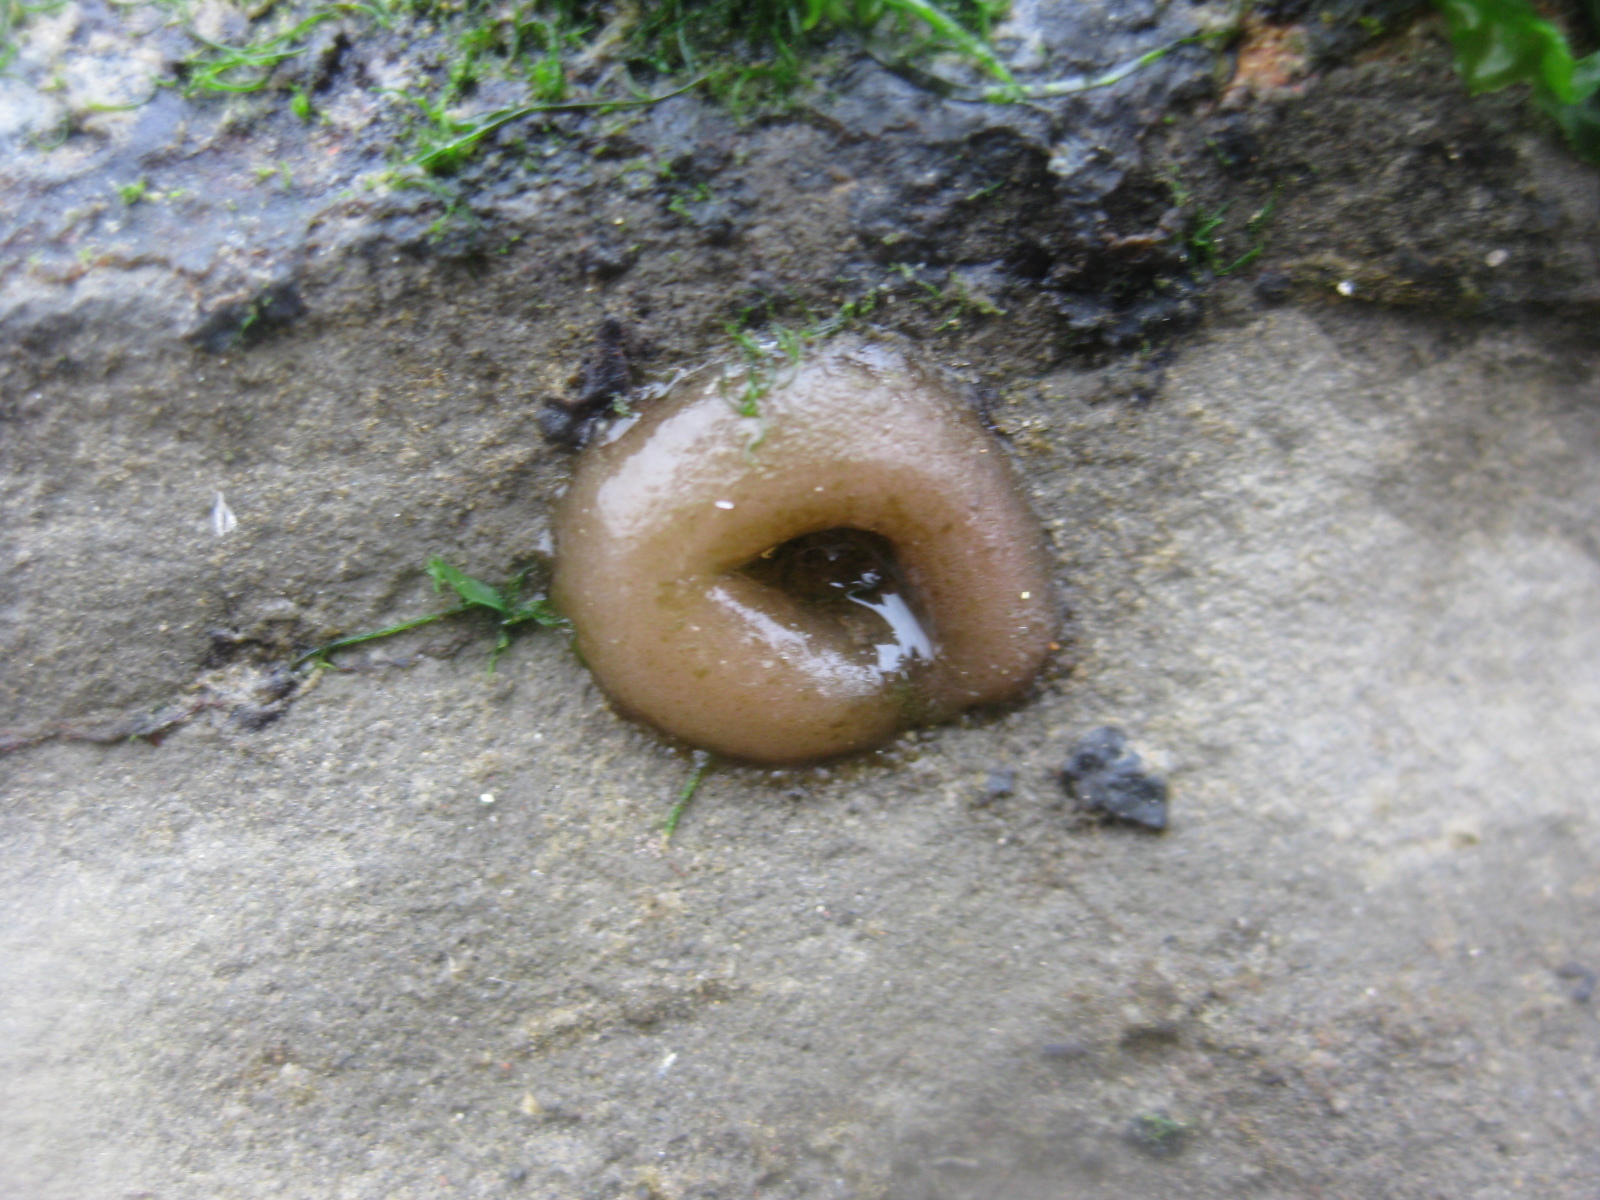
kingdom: Animalia
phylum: Mollusca
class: Gastropoda
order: Siphonariida
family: Siphonariidae
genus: Siphonaria
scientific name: Siphonaria australis
